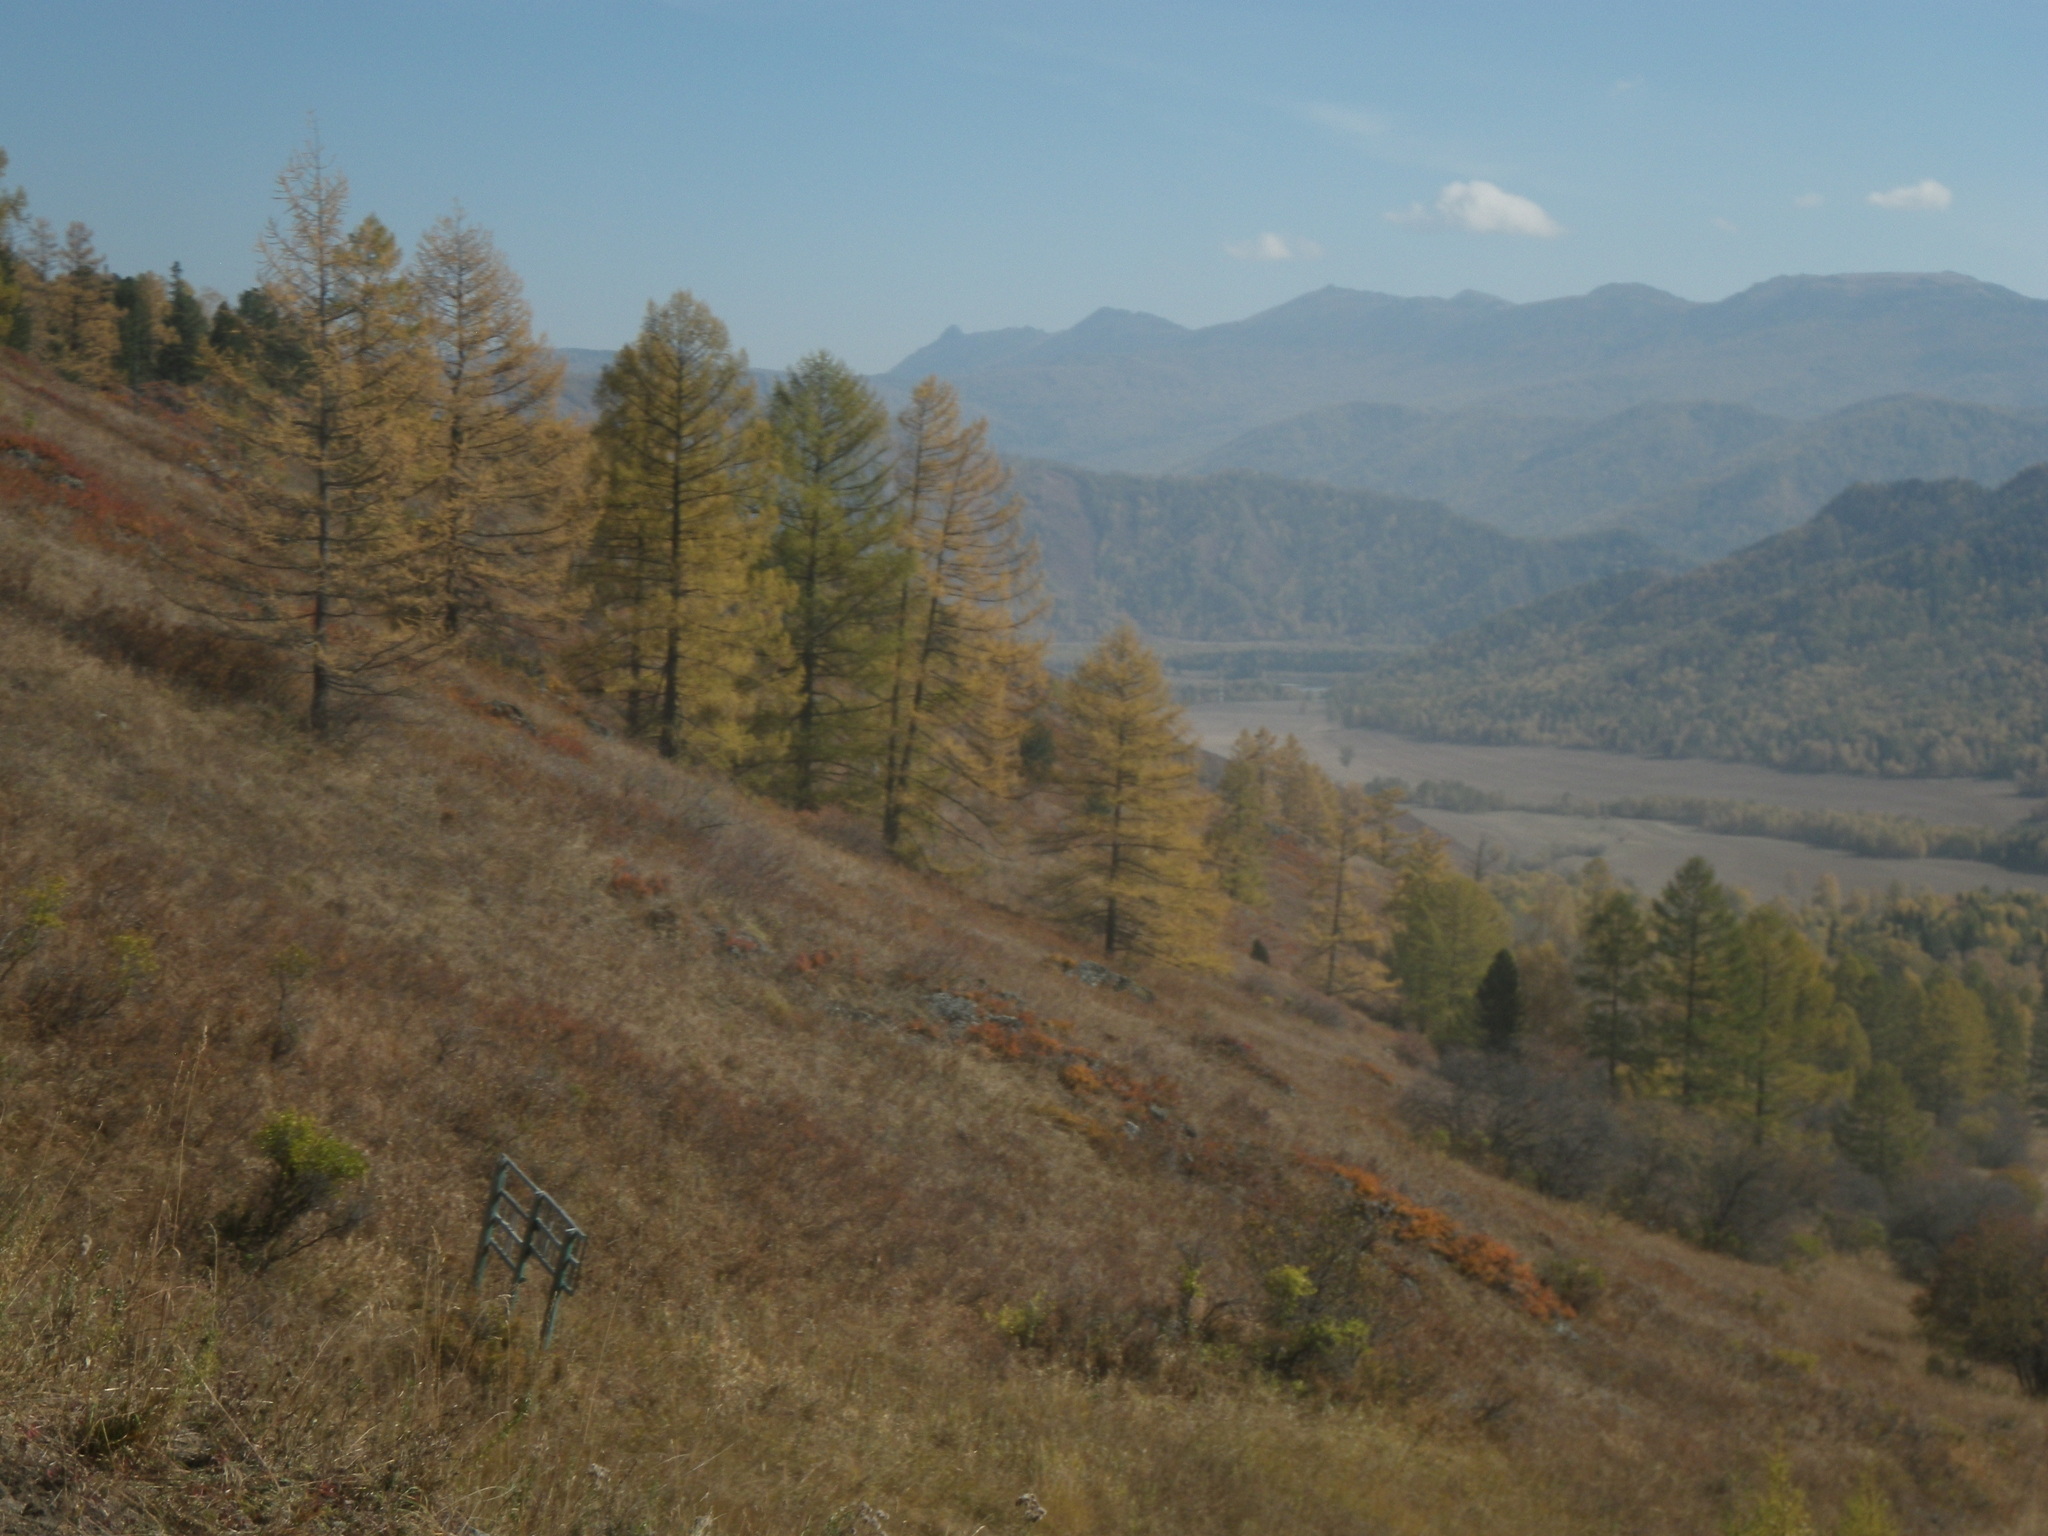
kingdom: Plantae
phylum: Tracheophyta
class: Pinopsida
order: Pinales
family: Pinaceae
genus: Larix
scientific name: Larix sibirica
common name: Siberian larch
